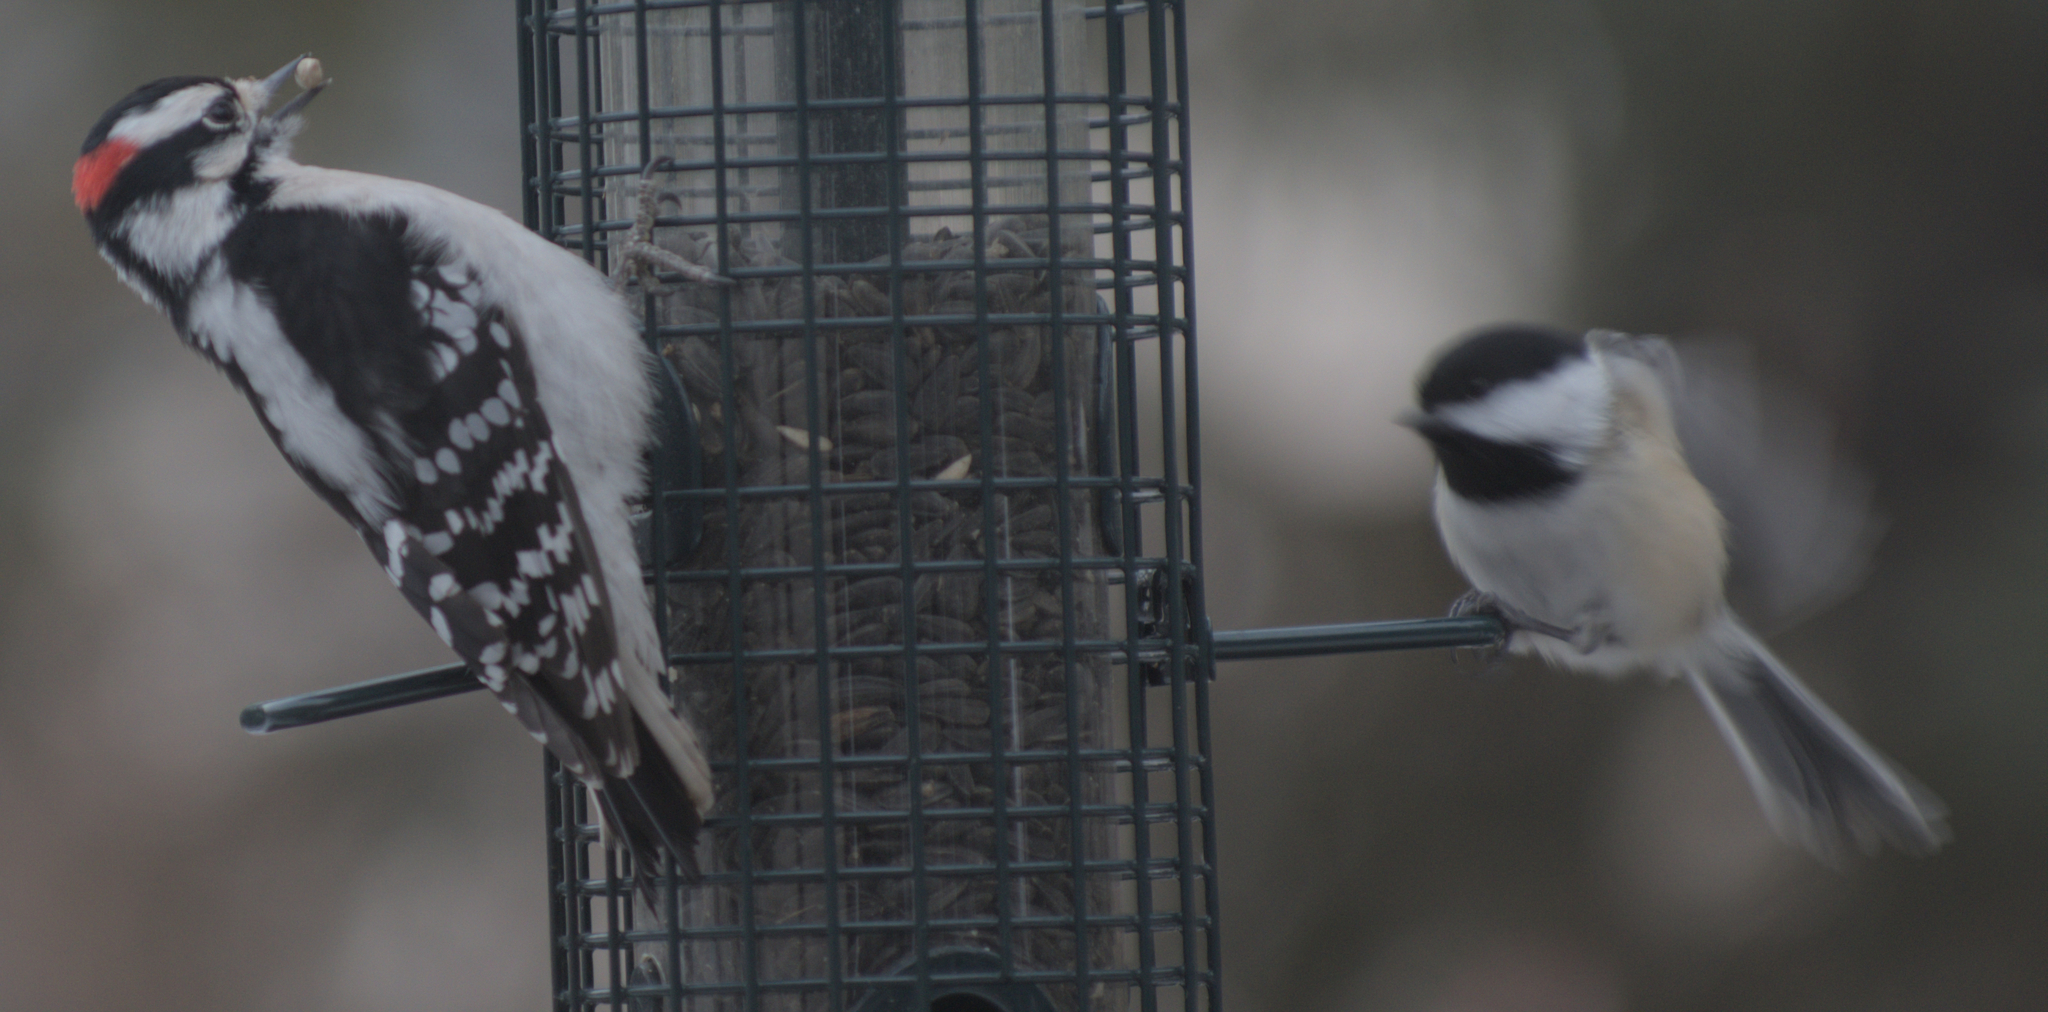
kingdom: Animalia
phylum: Chordata
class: Aves
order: Passeriformes
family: Paridae
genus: Poecile
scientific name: Poecile atricapillus
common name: Black-capped chickadee
